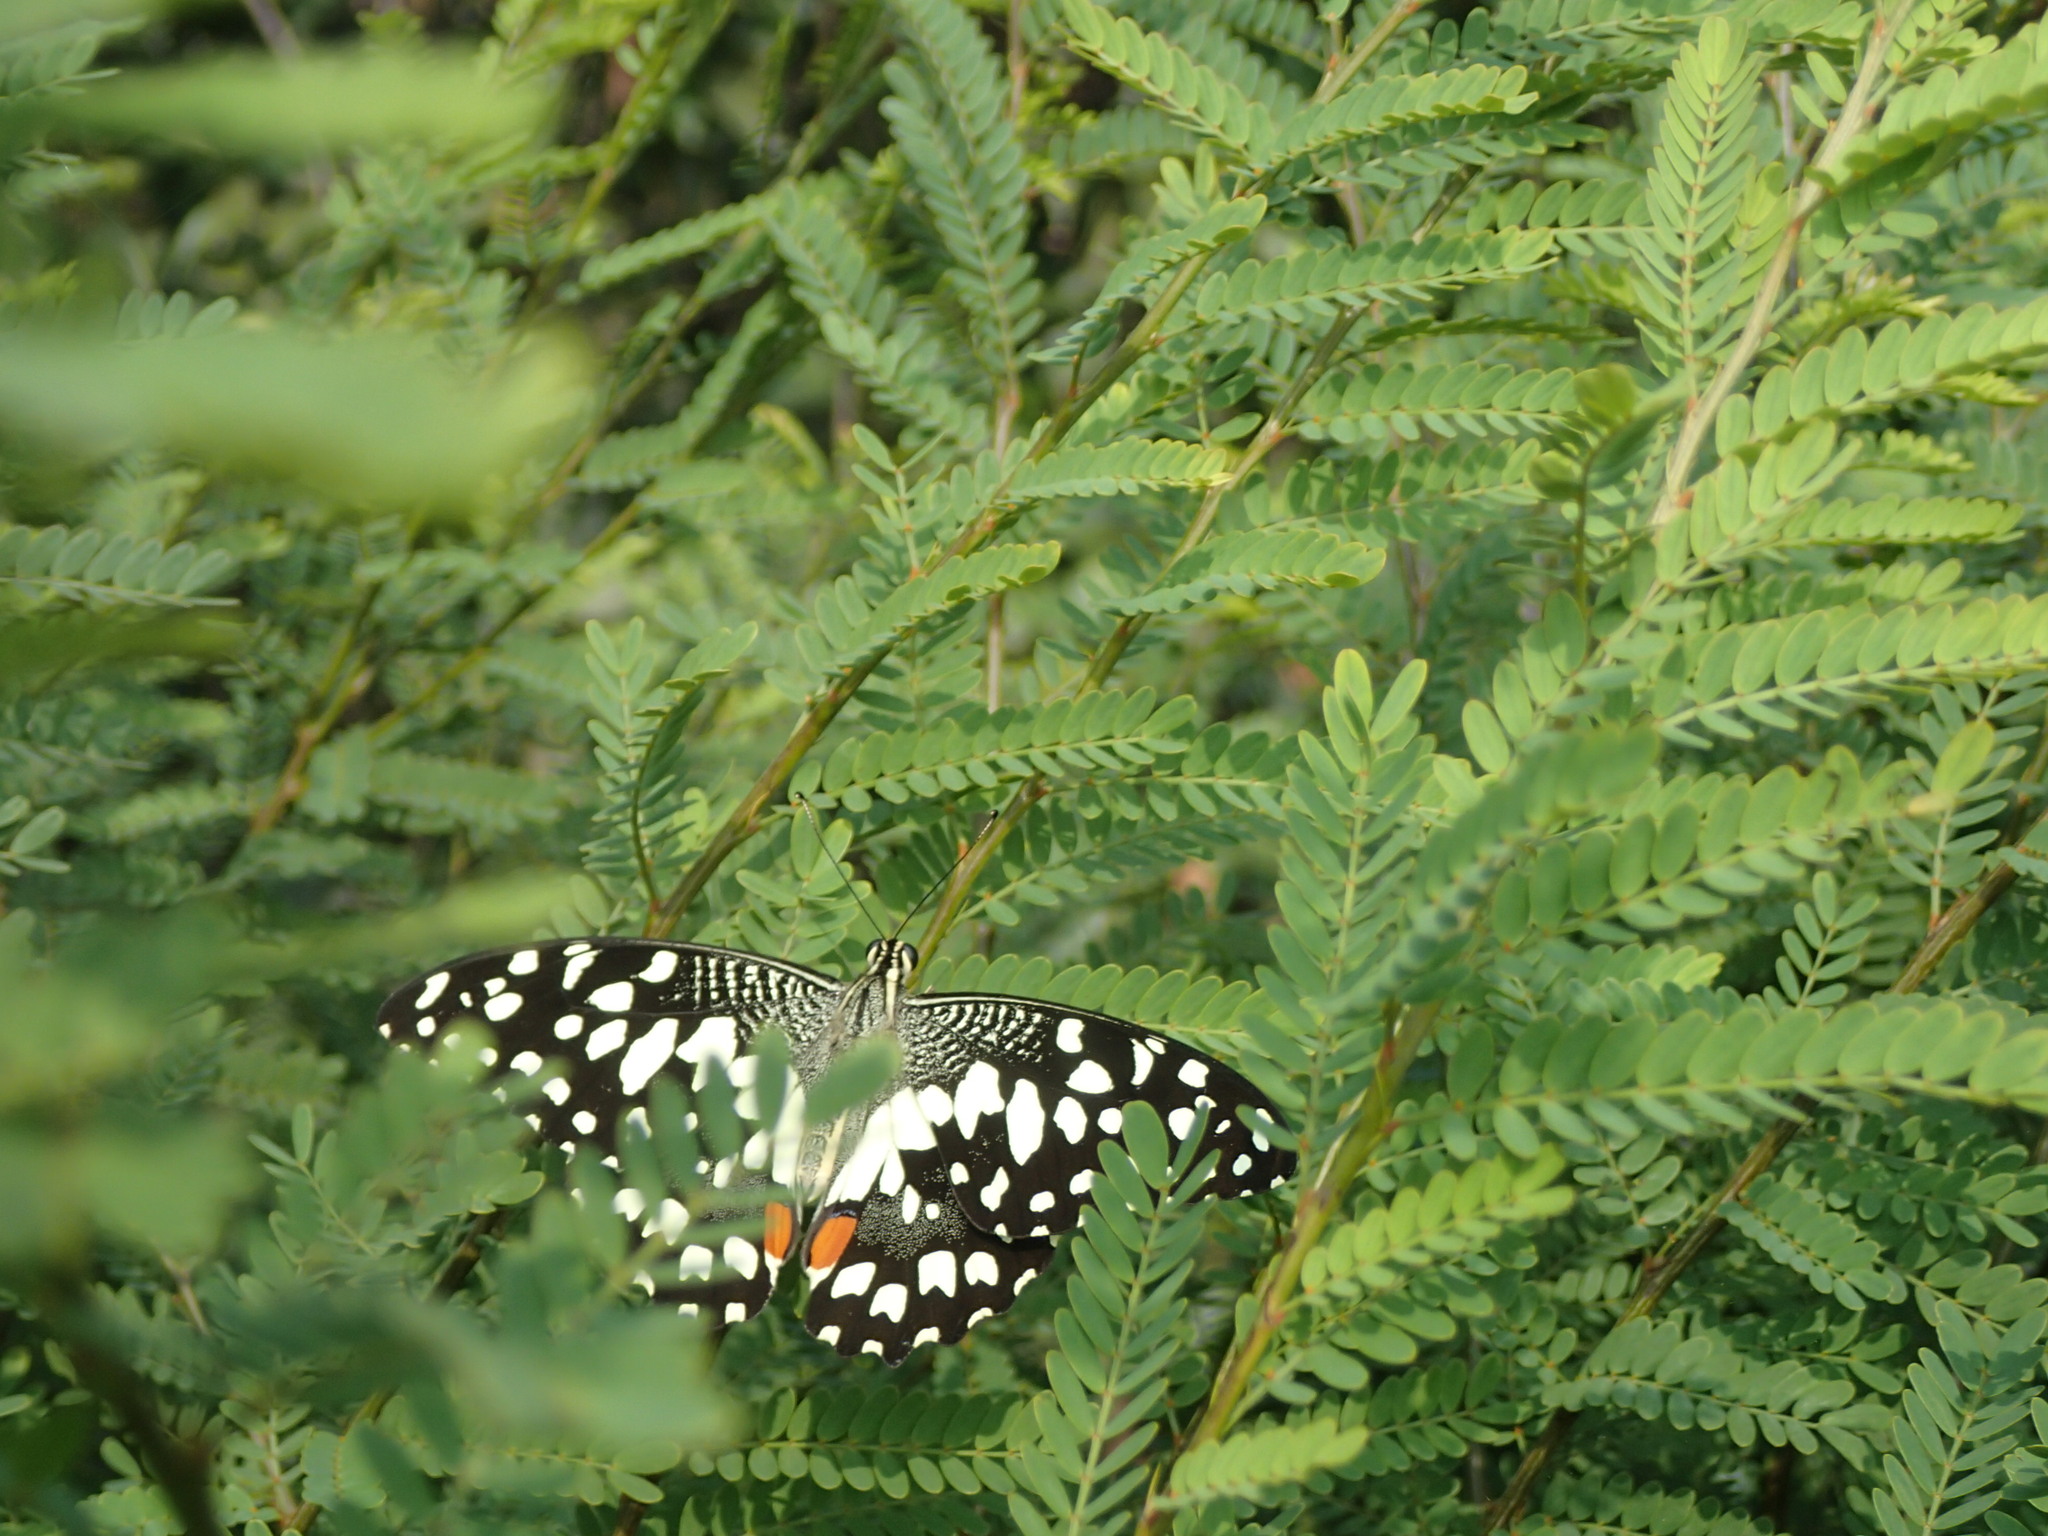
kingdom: Animalia
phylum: Arthropoda
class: Insecta
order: Lepidoptera
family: Papilionidae
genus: Papilio
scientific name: Papilio demoleus
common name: Lime butterfly
